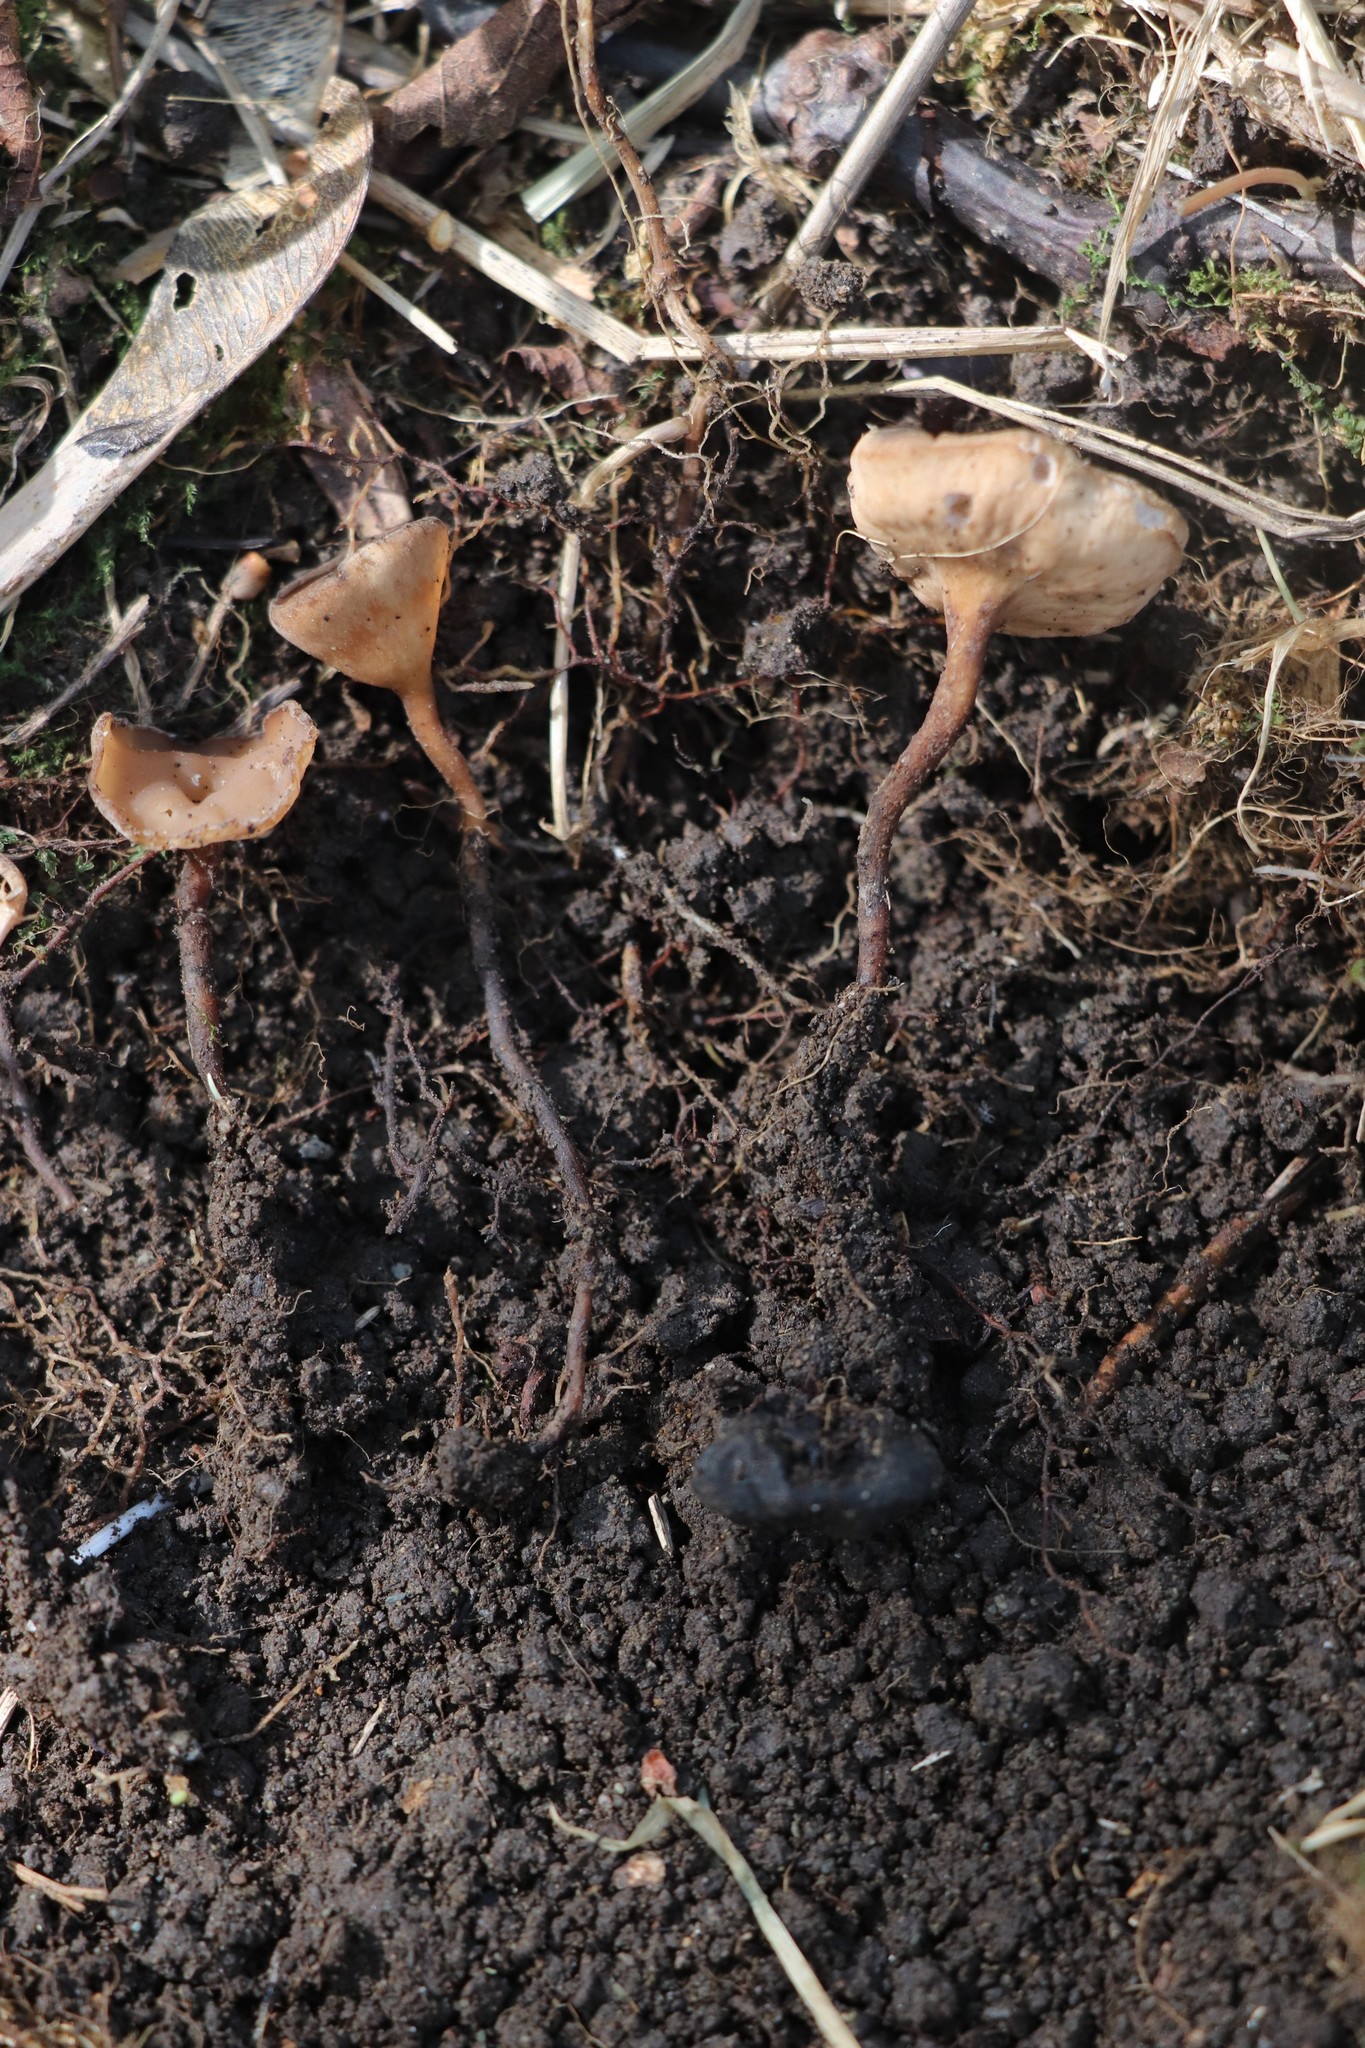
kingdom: Fungi
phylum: Ascomycota
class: Leotiomycetes
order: Helotiales
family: Sclerotiniaceae
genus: Dumontinia
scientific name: Dumontinia tuberosa
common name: Anemone cup
